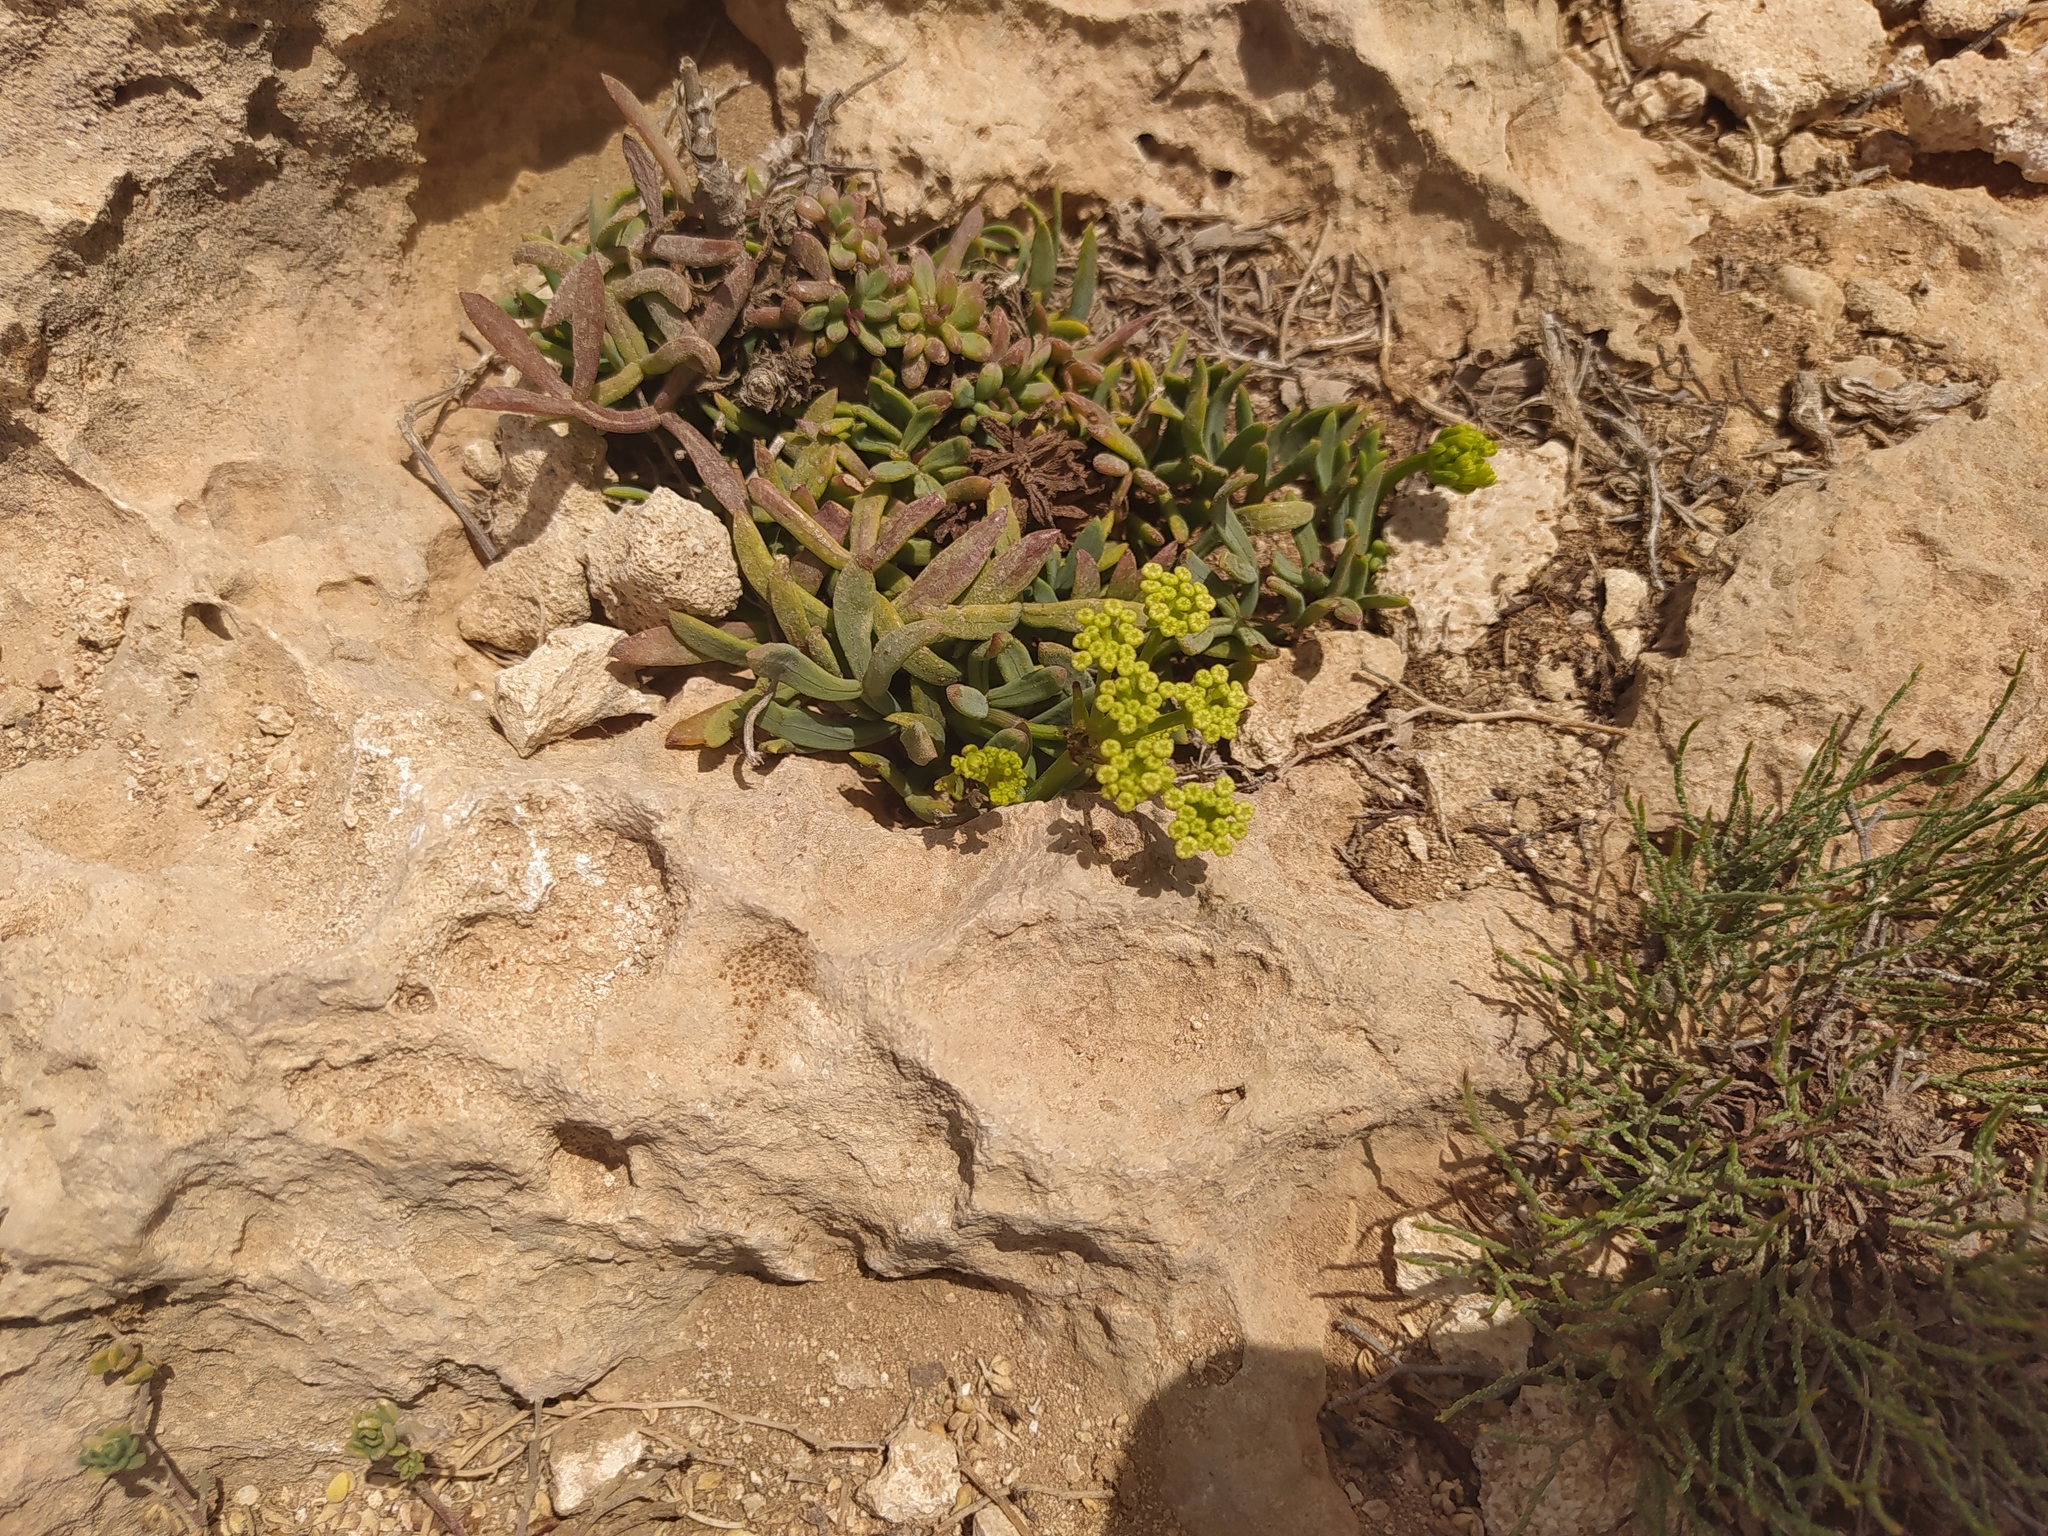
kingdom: Plantae
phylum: Tracheophyta
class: Magnoliopsida
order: Apiales
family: Apiaceae
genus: Crithmum
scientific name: Crithmum maritimum
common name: Rock samphire
